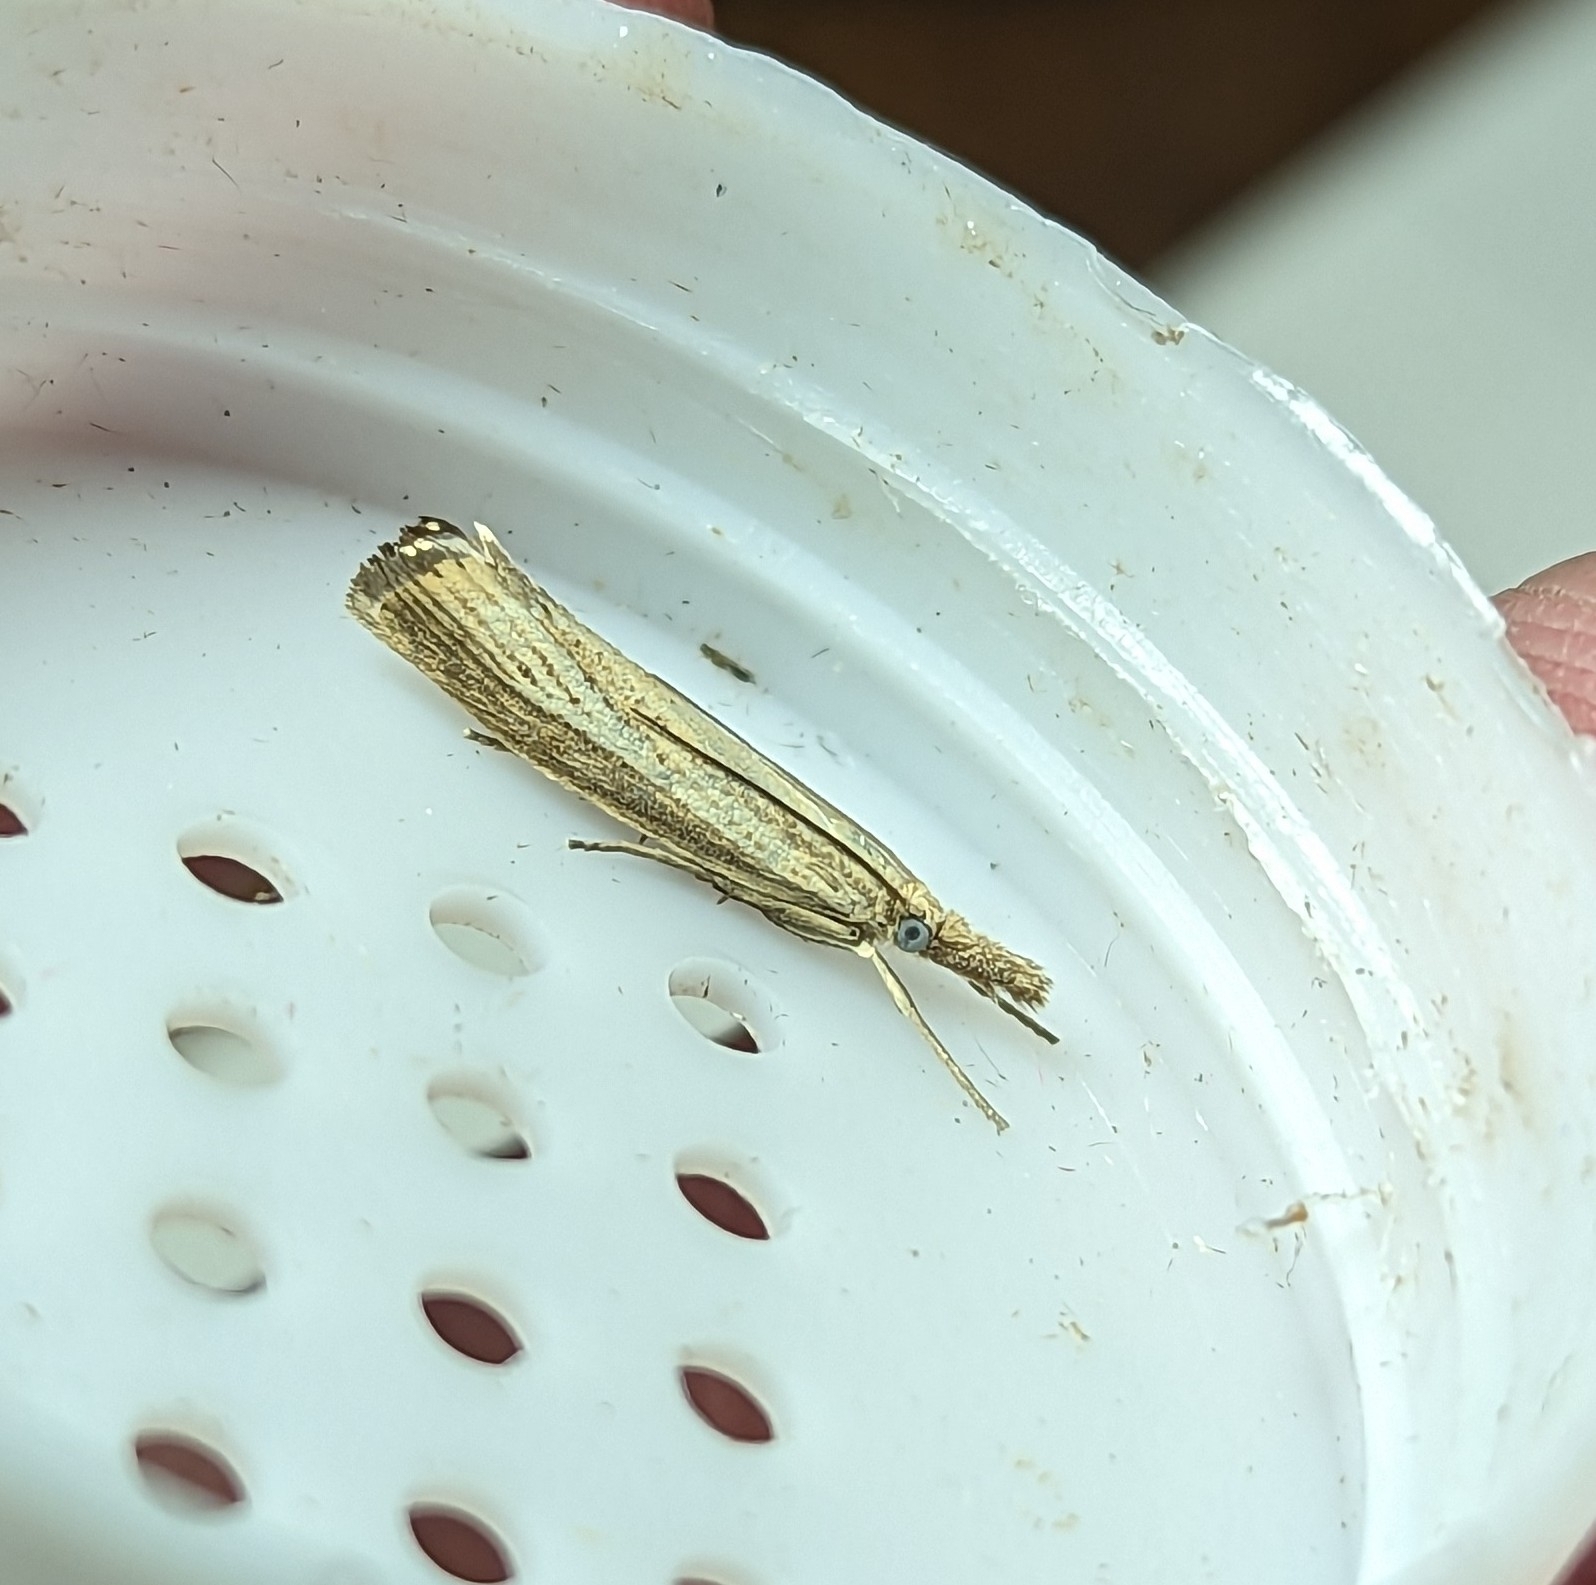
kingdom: Animalia
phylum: Arthropoda
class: Insecta
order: Lepidoptera
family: Crambidae
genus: Agriphila
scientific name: Agriphila straminella
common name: Straw grass-veneer
